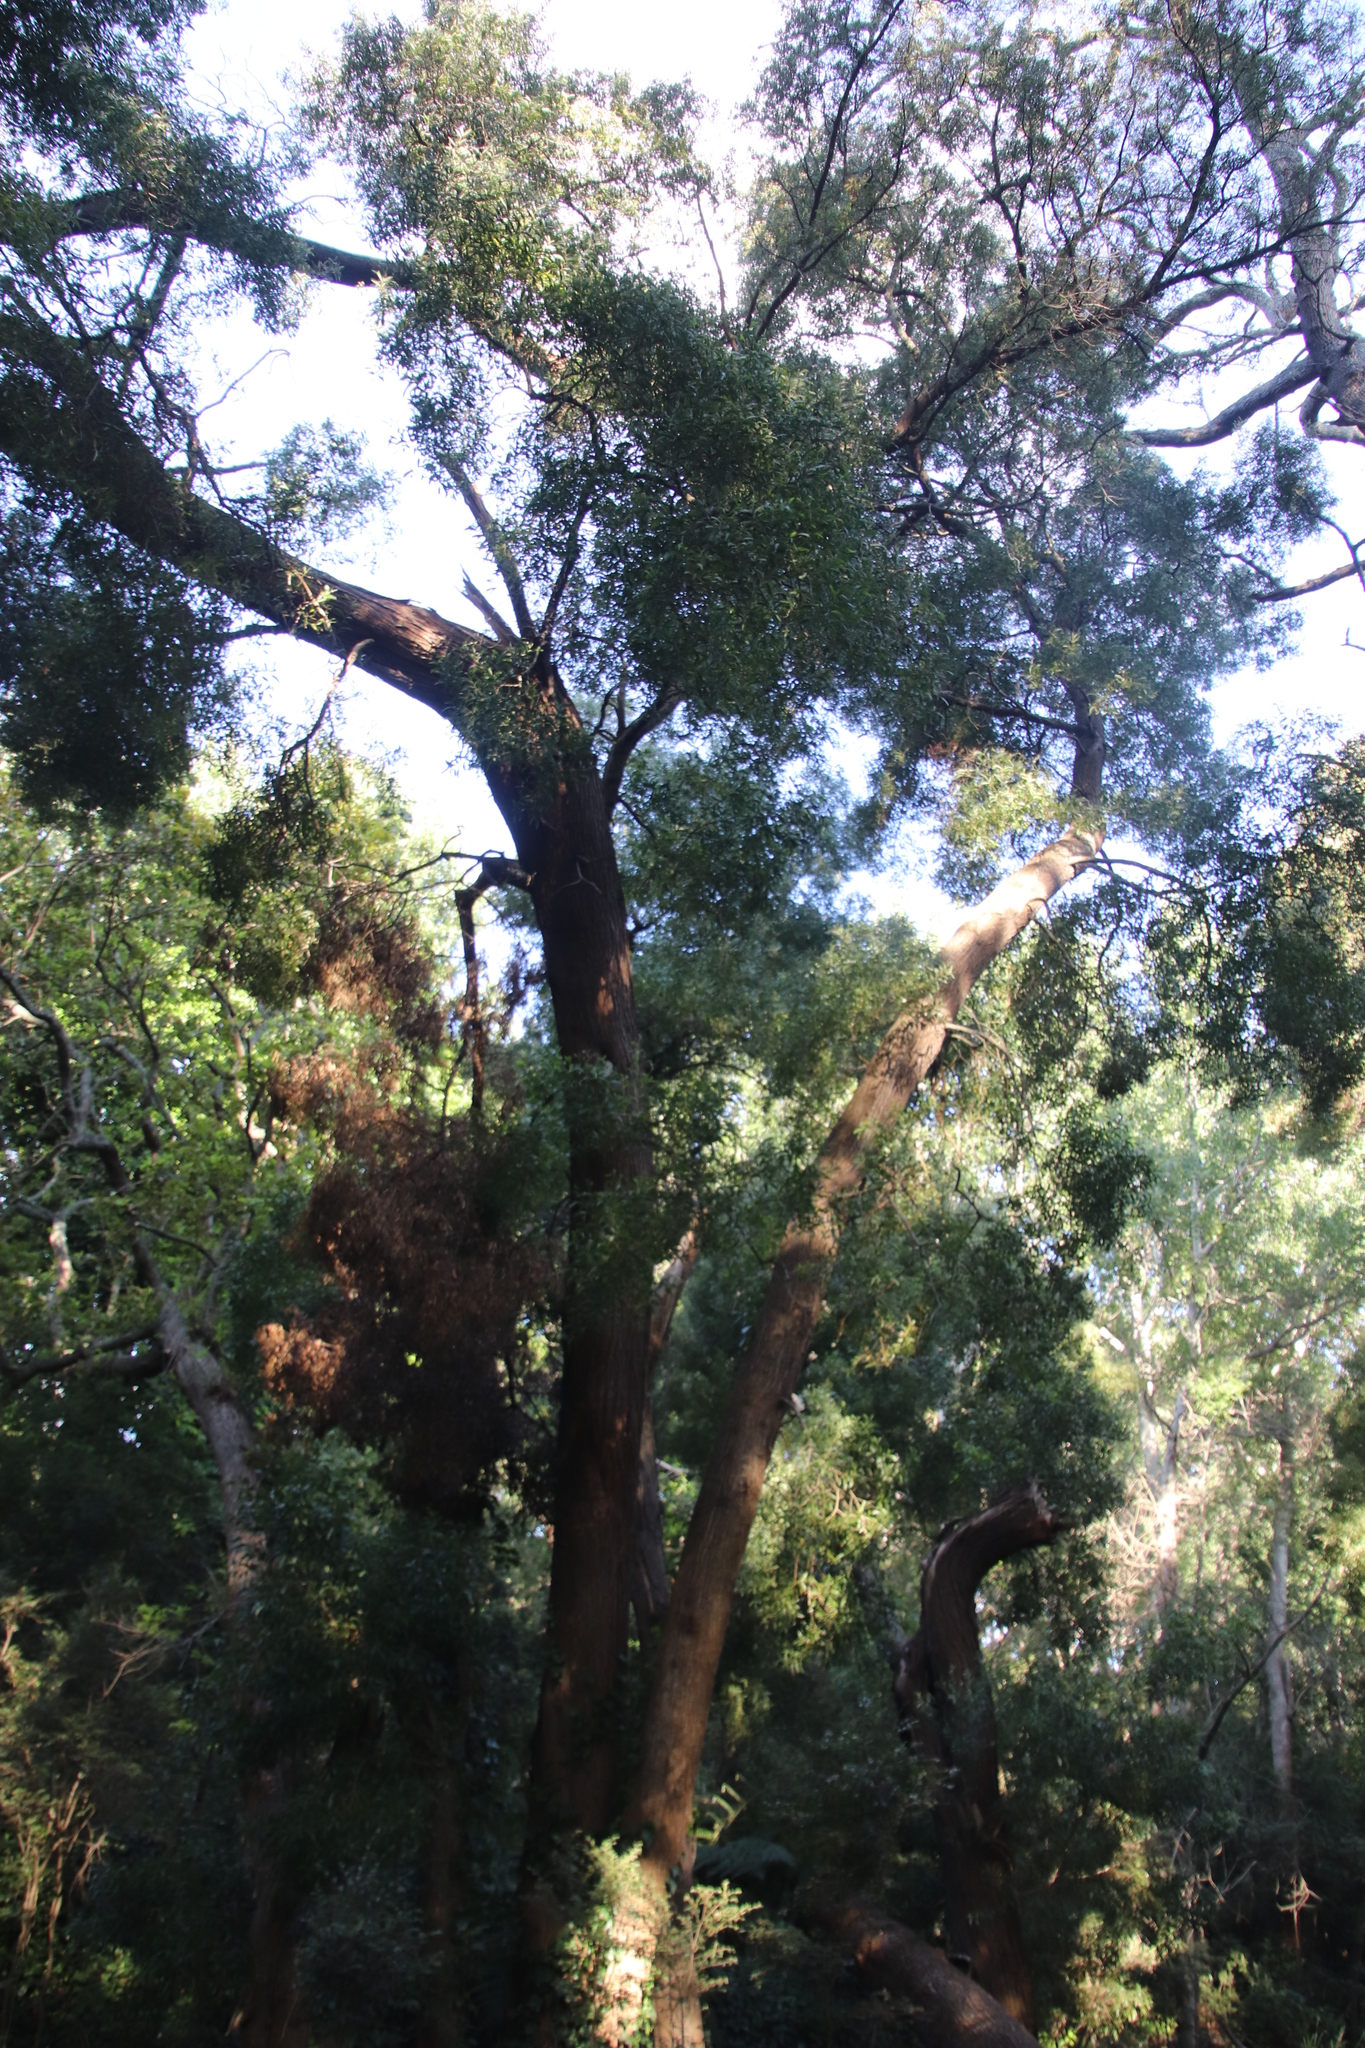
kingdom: Plantae
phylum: Tracheophyta
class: Magnoliopsida
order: Fabales
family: Fabaceae
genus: Acacia
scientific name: Acacia melanoxylon
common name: Blackwood
